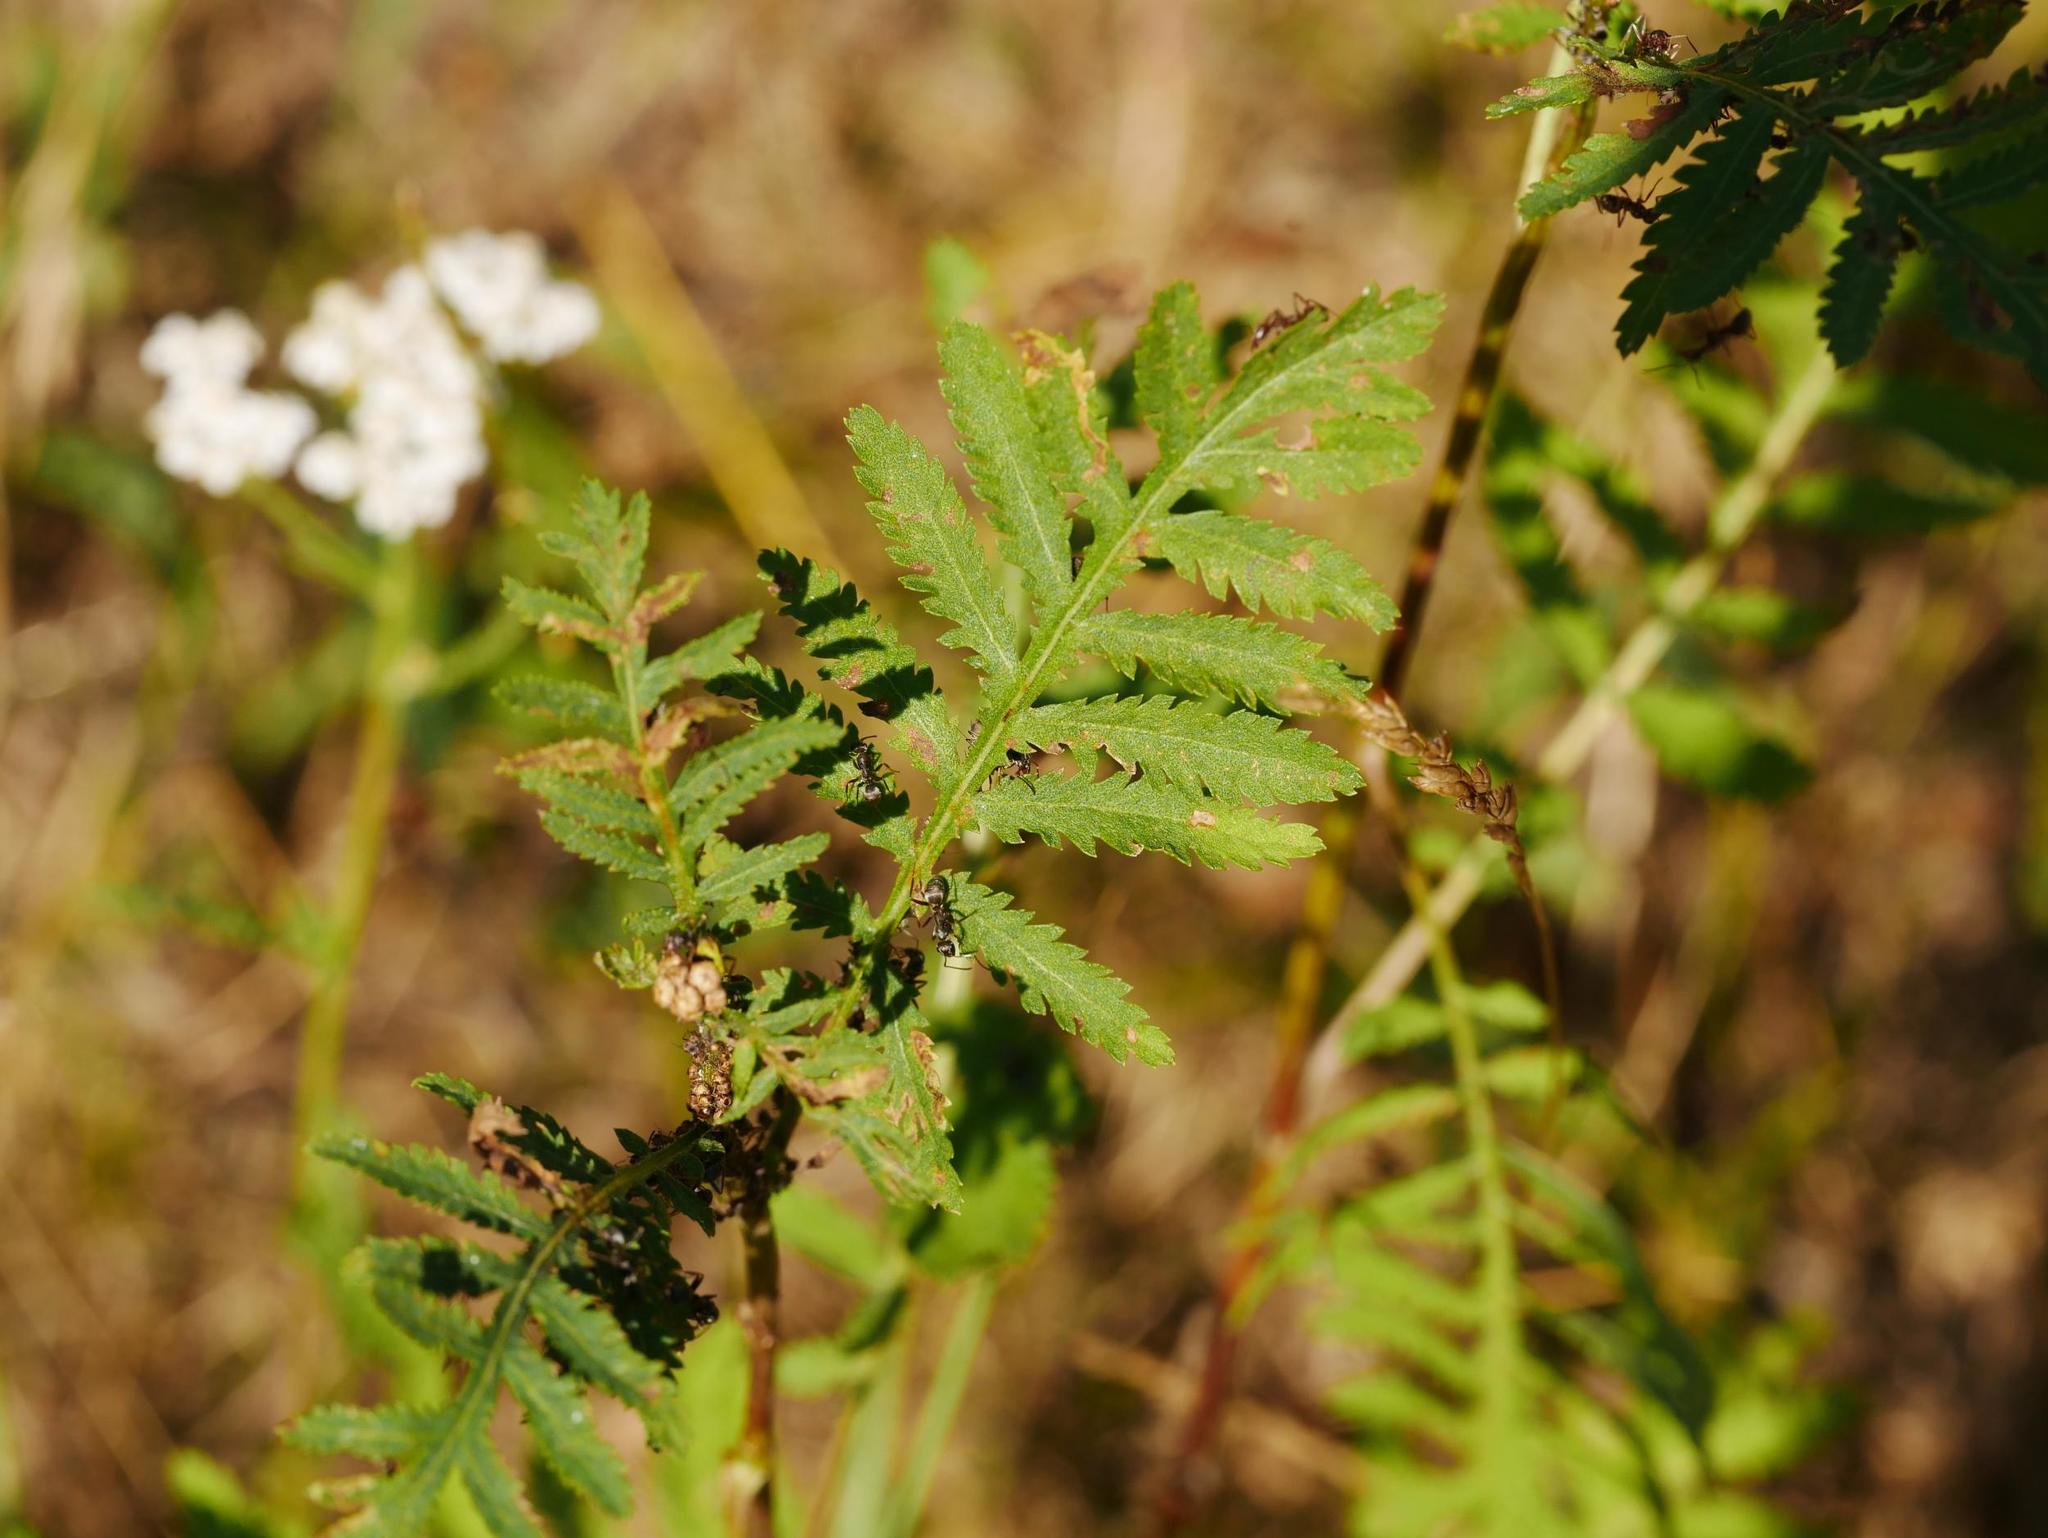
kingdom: Plantae
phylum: Tracheophyta
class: Magnoliopsida
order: Asterales
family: Asteraceae
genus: Tanacetum
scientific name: Tanacetum vulgare
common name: Common tansy
